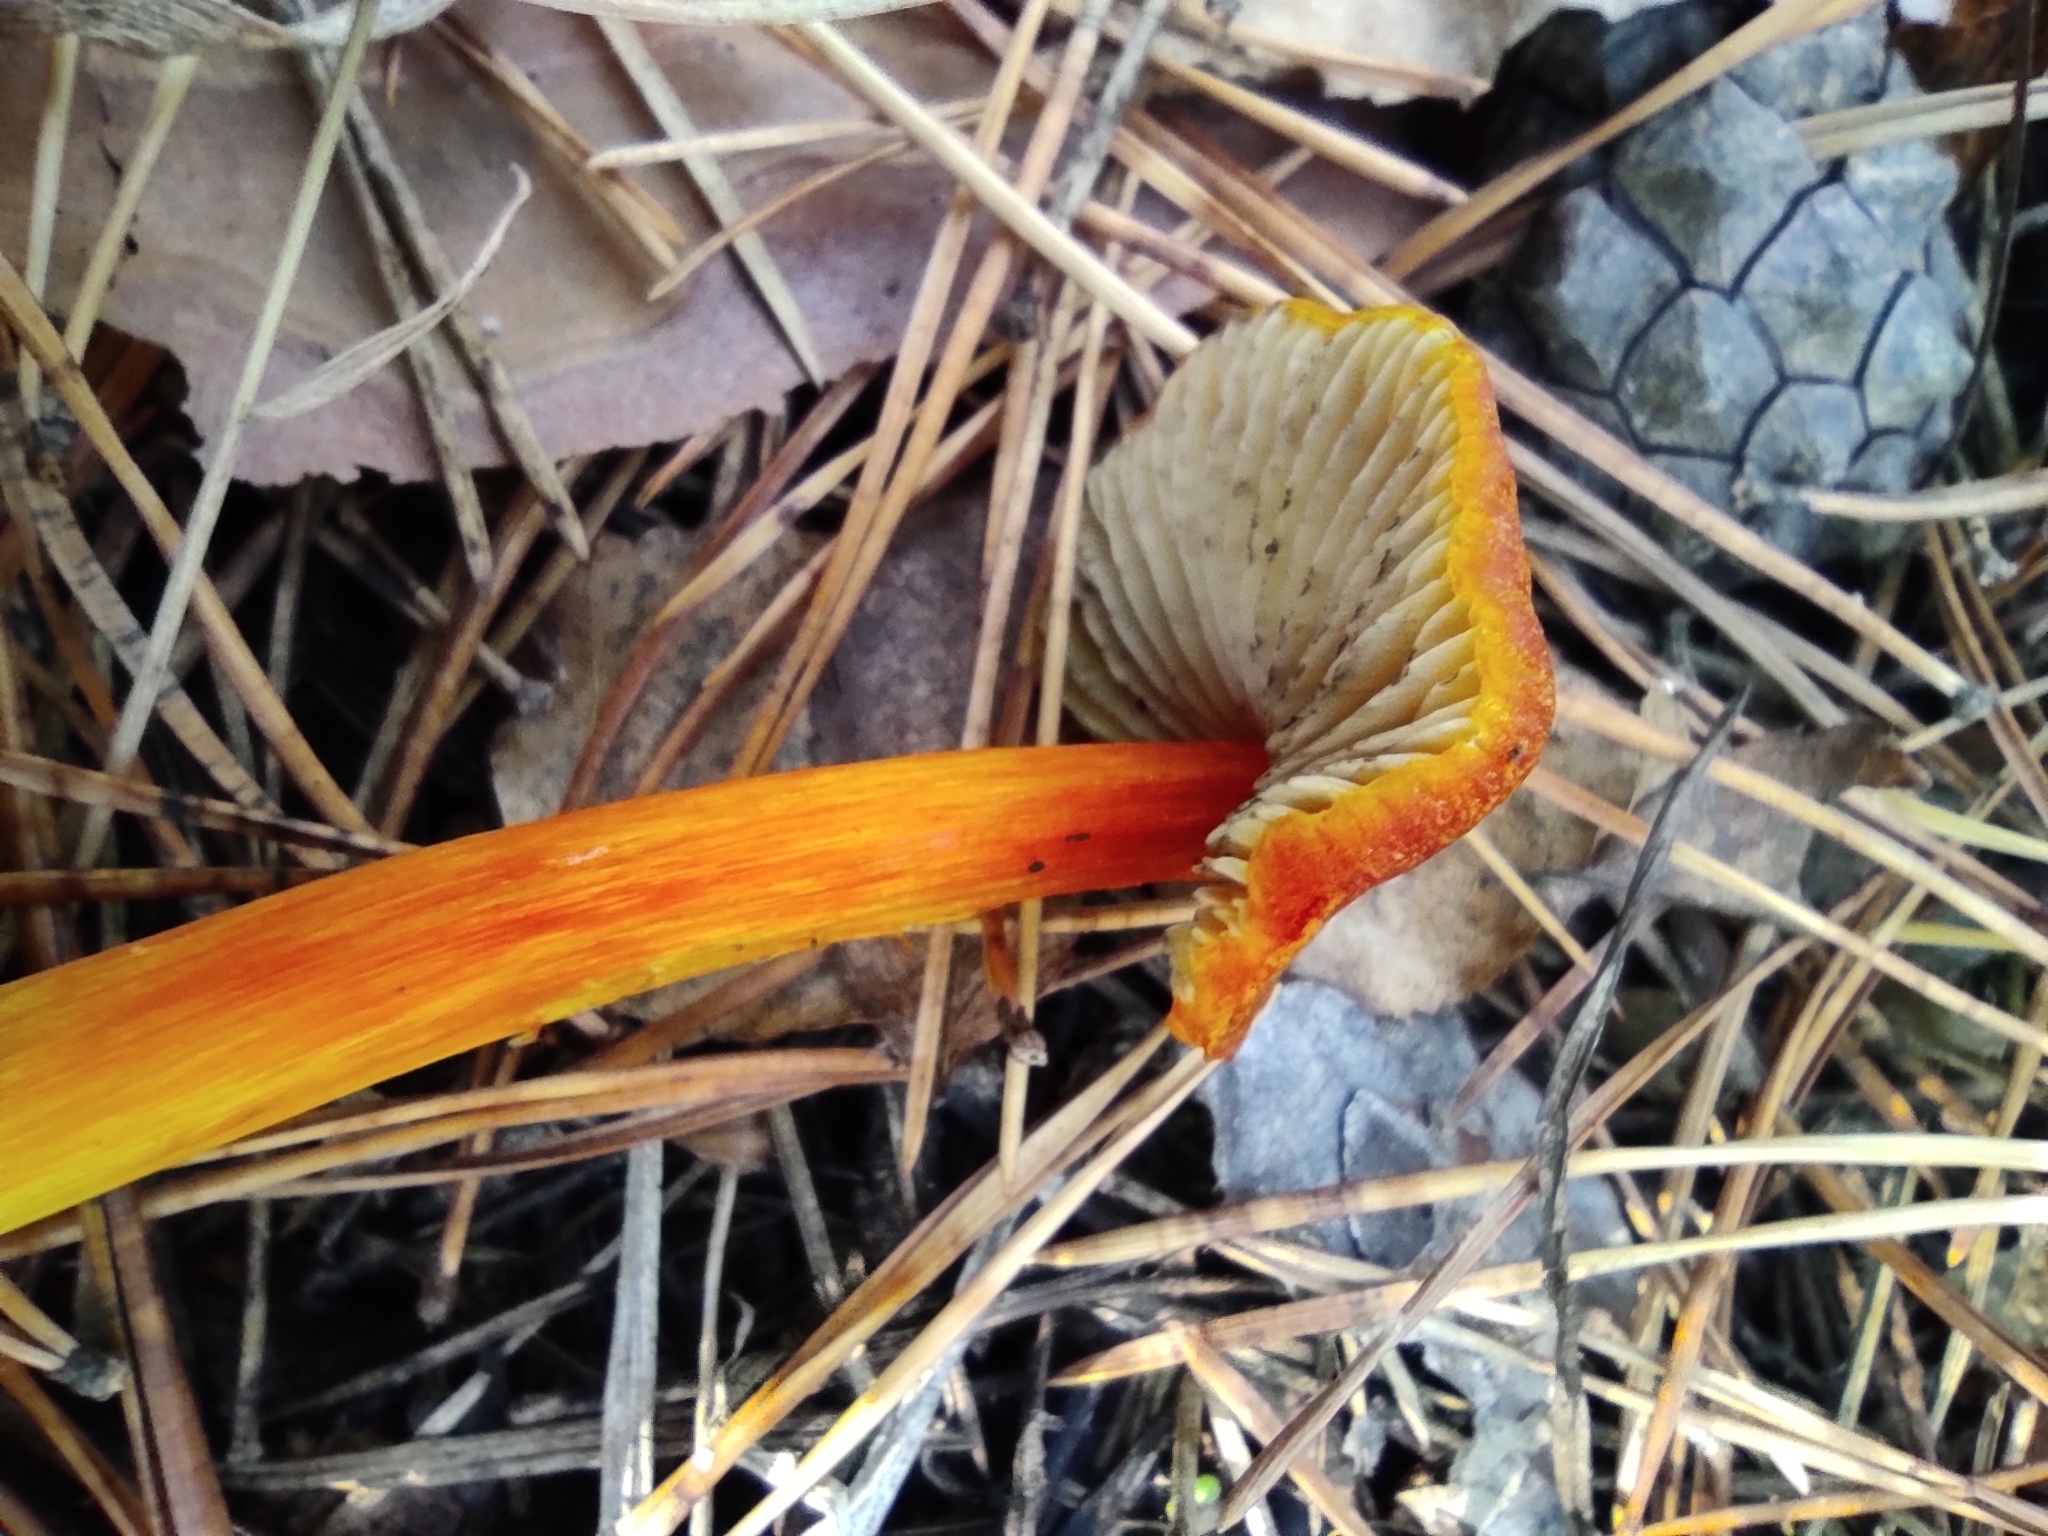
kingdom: Fungi
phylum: Basidiomycota
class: Agaricomycetes
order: Agaricales
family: Hygrophoraceae
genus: Hygrocybe
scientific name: Hygrocybe conica
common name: Blackening wax-cap
